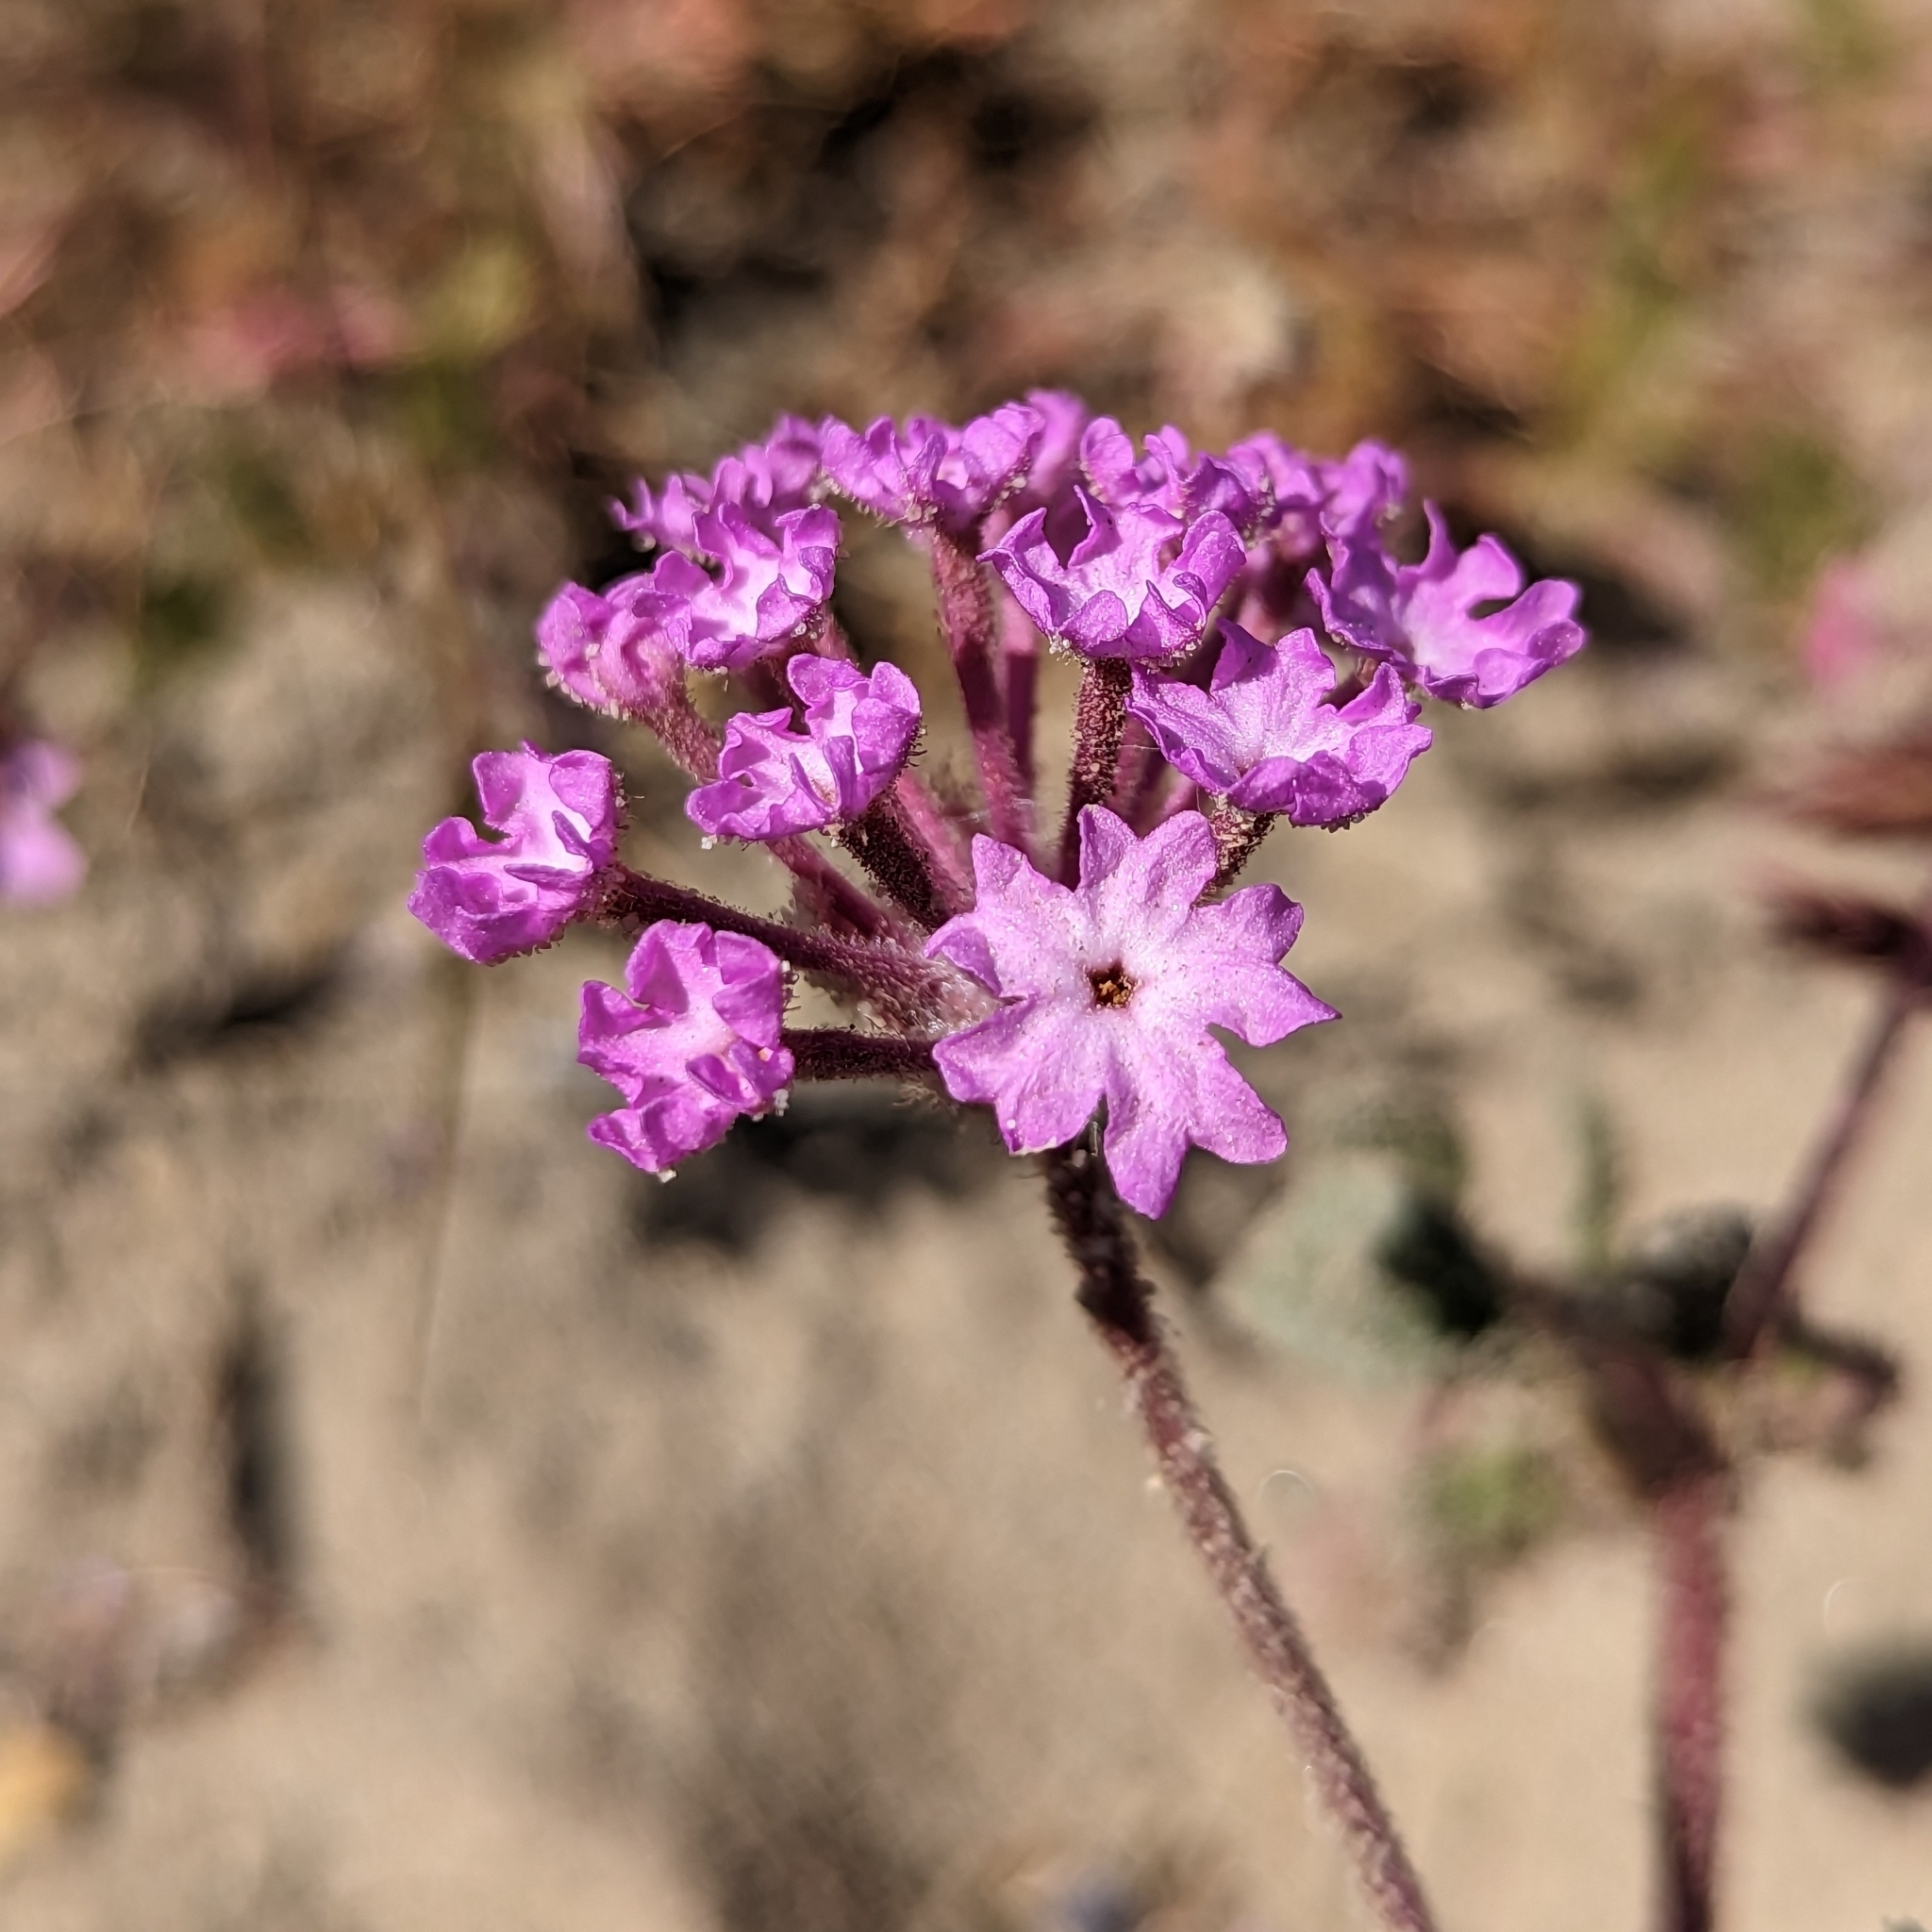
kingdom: Plantae
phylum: Tracheophyta
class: Magnoliopsida
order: Caryophyllales
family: Nyctaginaceae
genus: Abronia
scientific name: Abronia pogonantha
